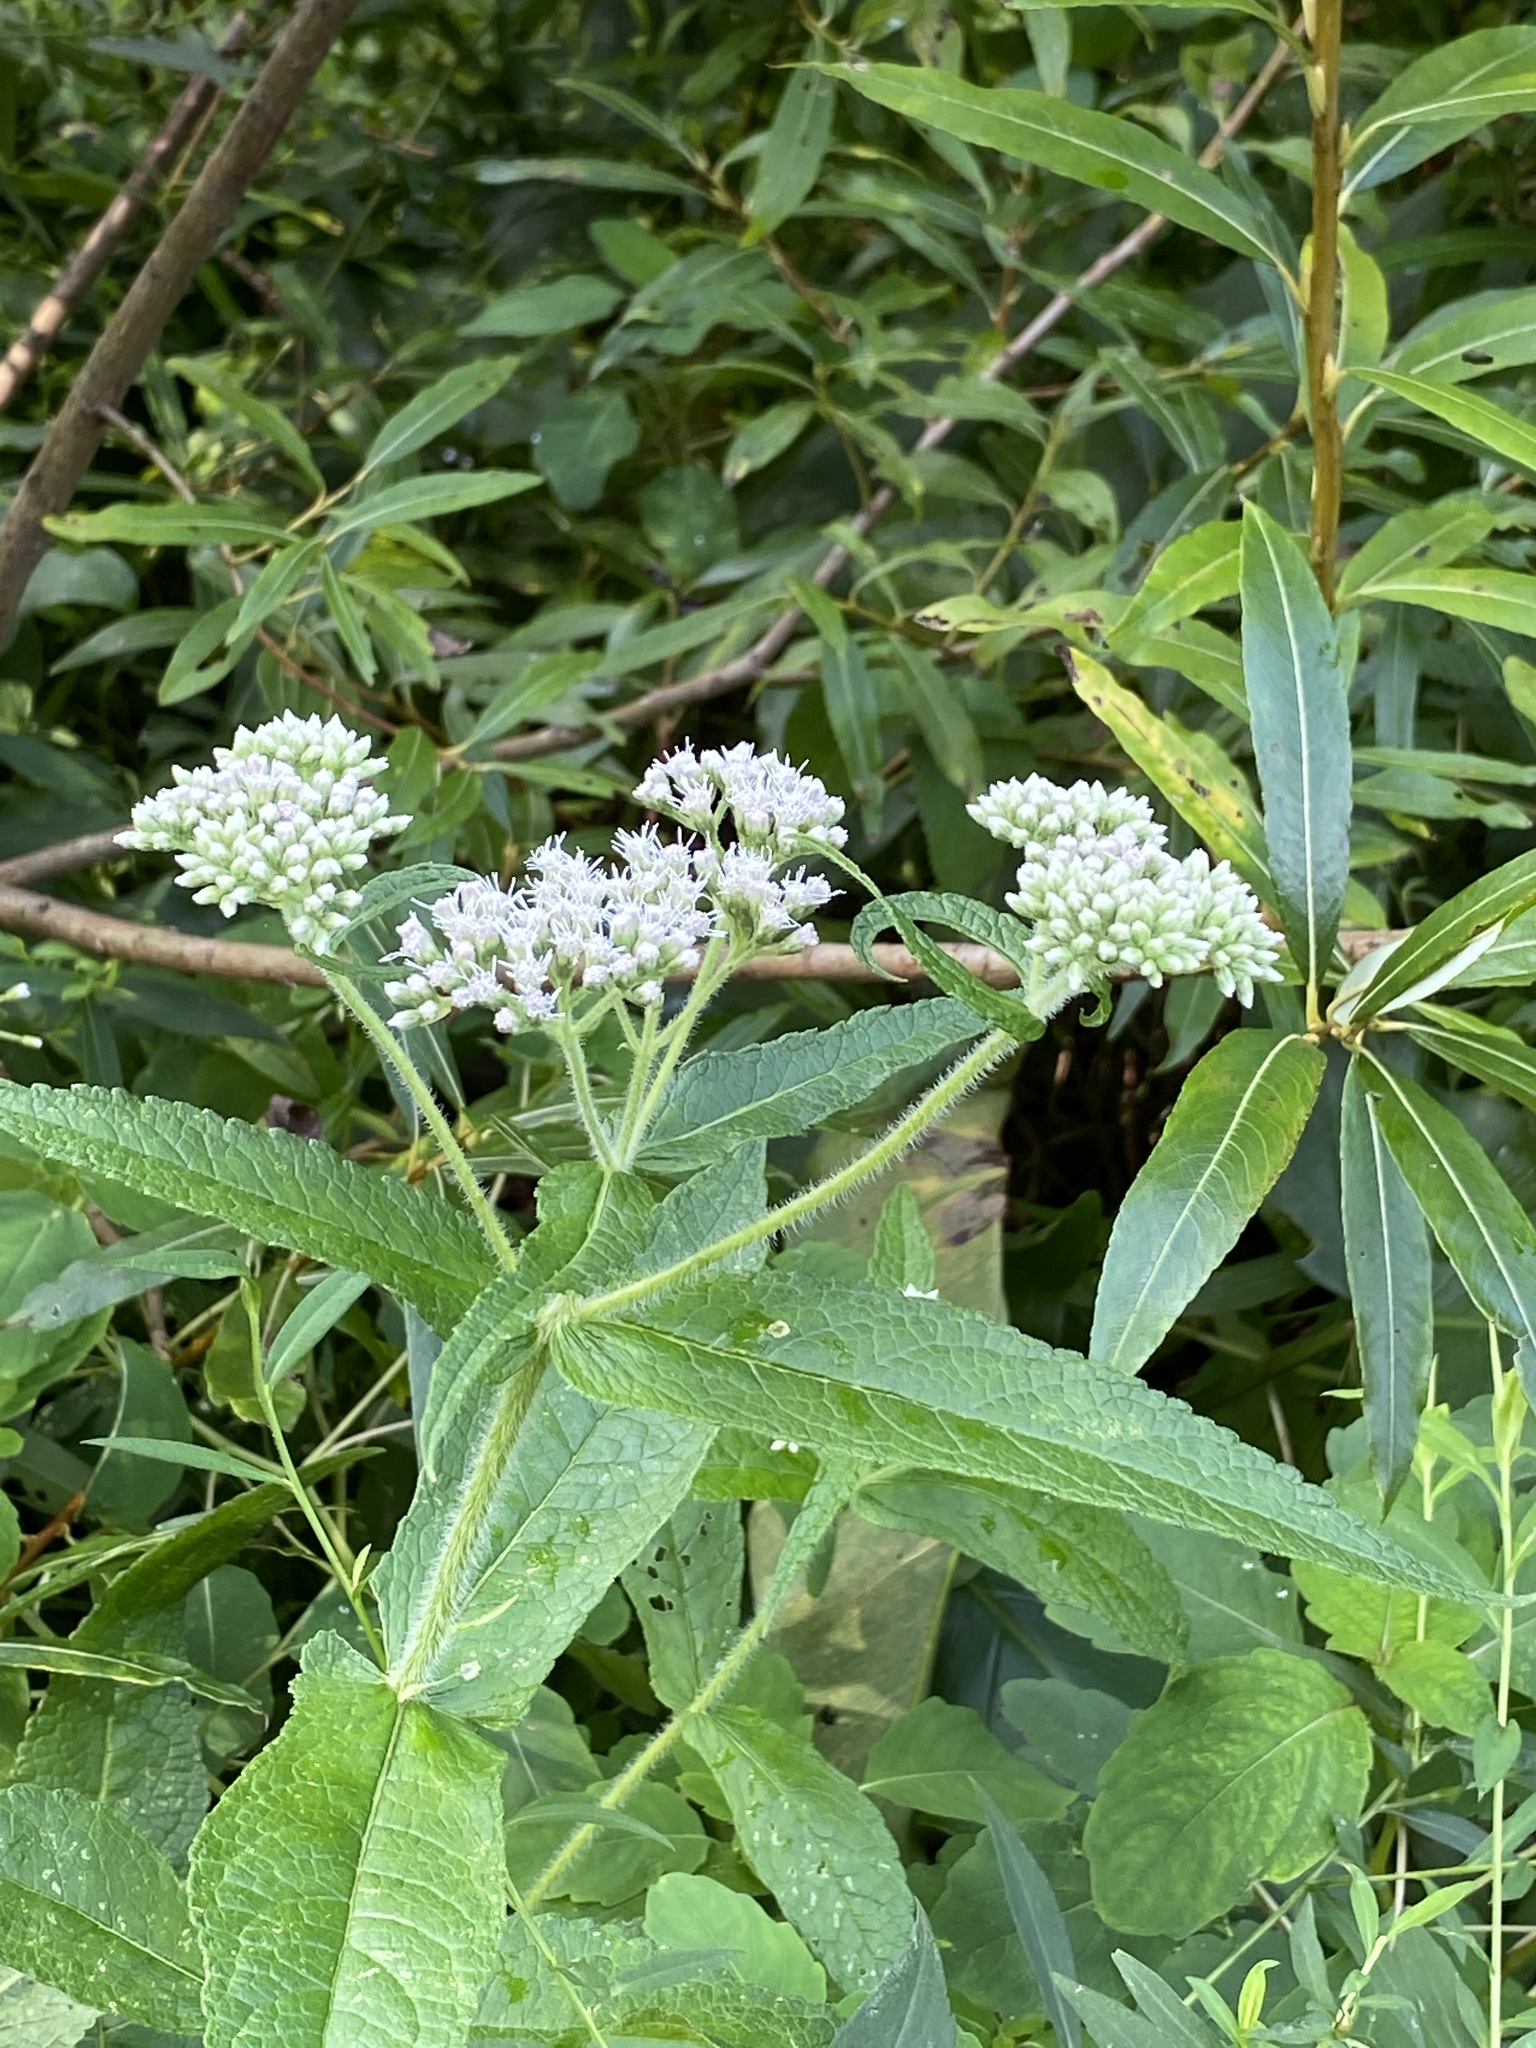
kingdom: Plantae
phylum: Tracheophyta
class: Magnoliopsida
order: Asterales
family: Asteraceae
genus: Eupatorium
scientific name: Eupatorium perfoliatum
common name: Boneset
